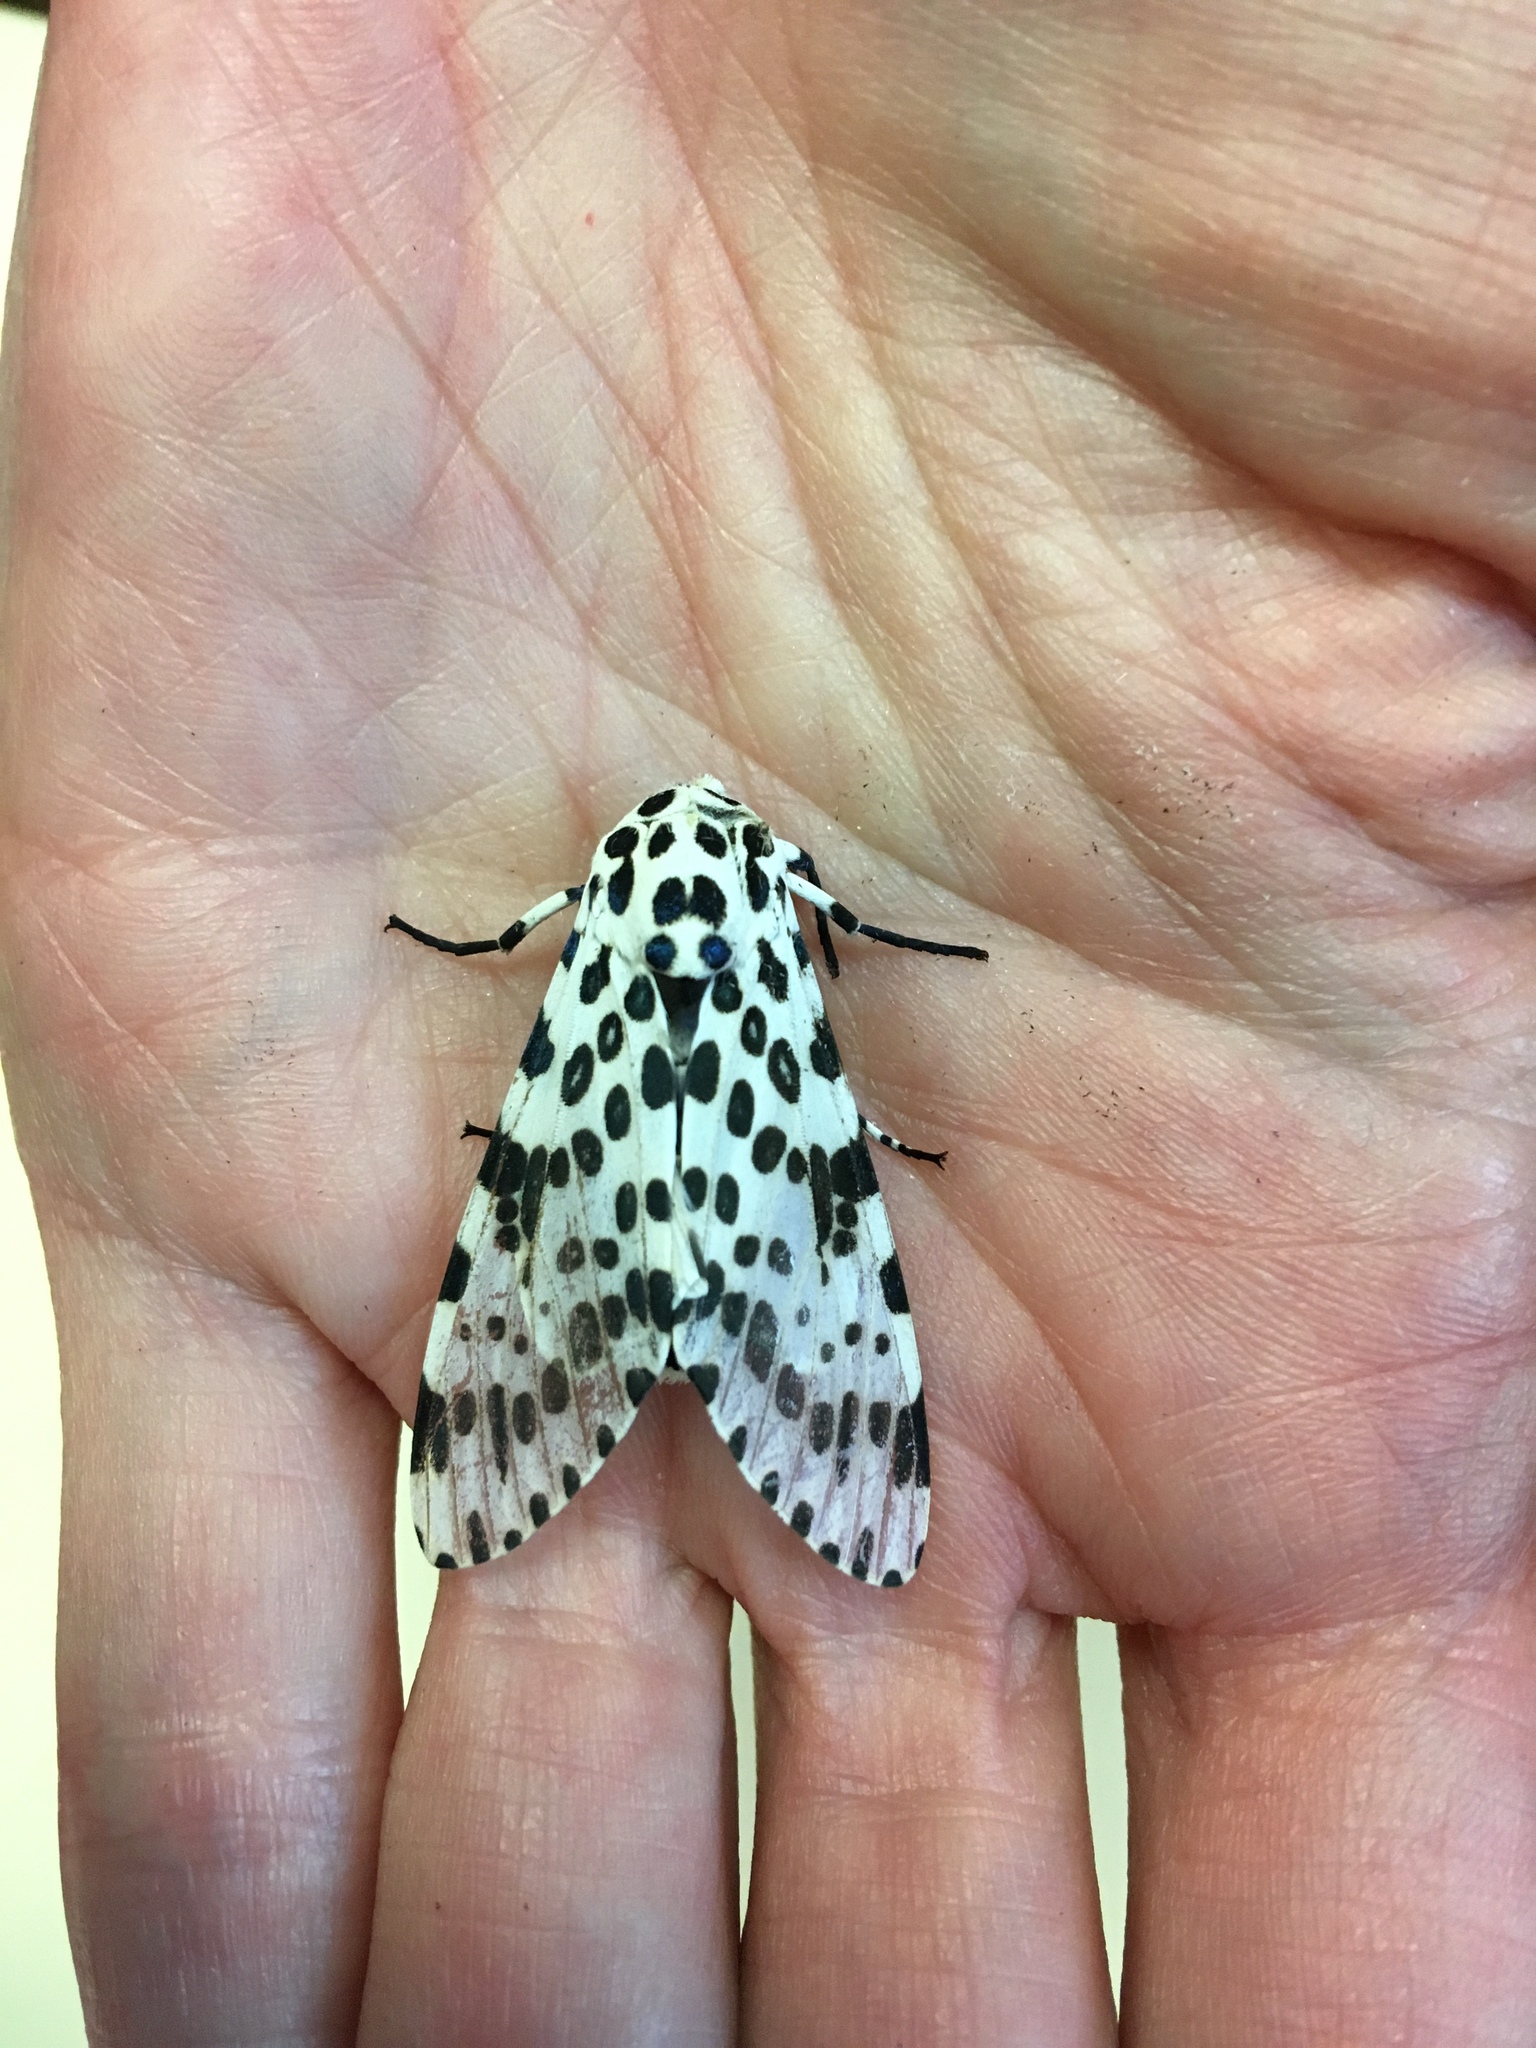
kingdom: Animalia
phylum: Arthropoda
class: Insecta
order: Lepidoptera
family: Erebidae
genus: Hypercompe
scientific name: Hypercompe scribonia
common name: Giant leopard moth
